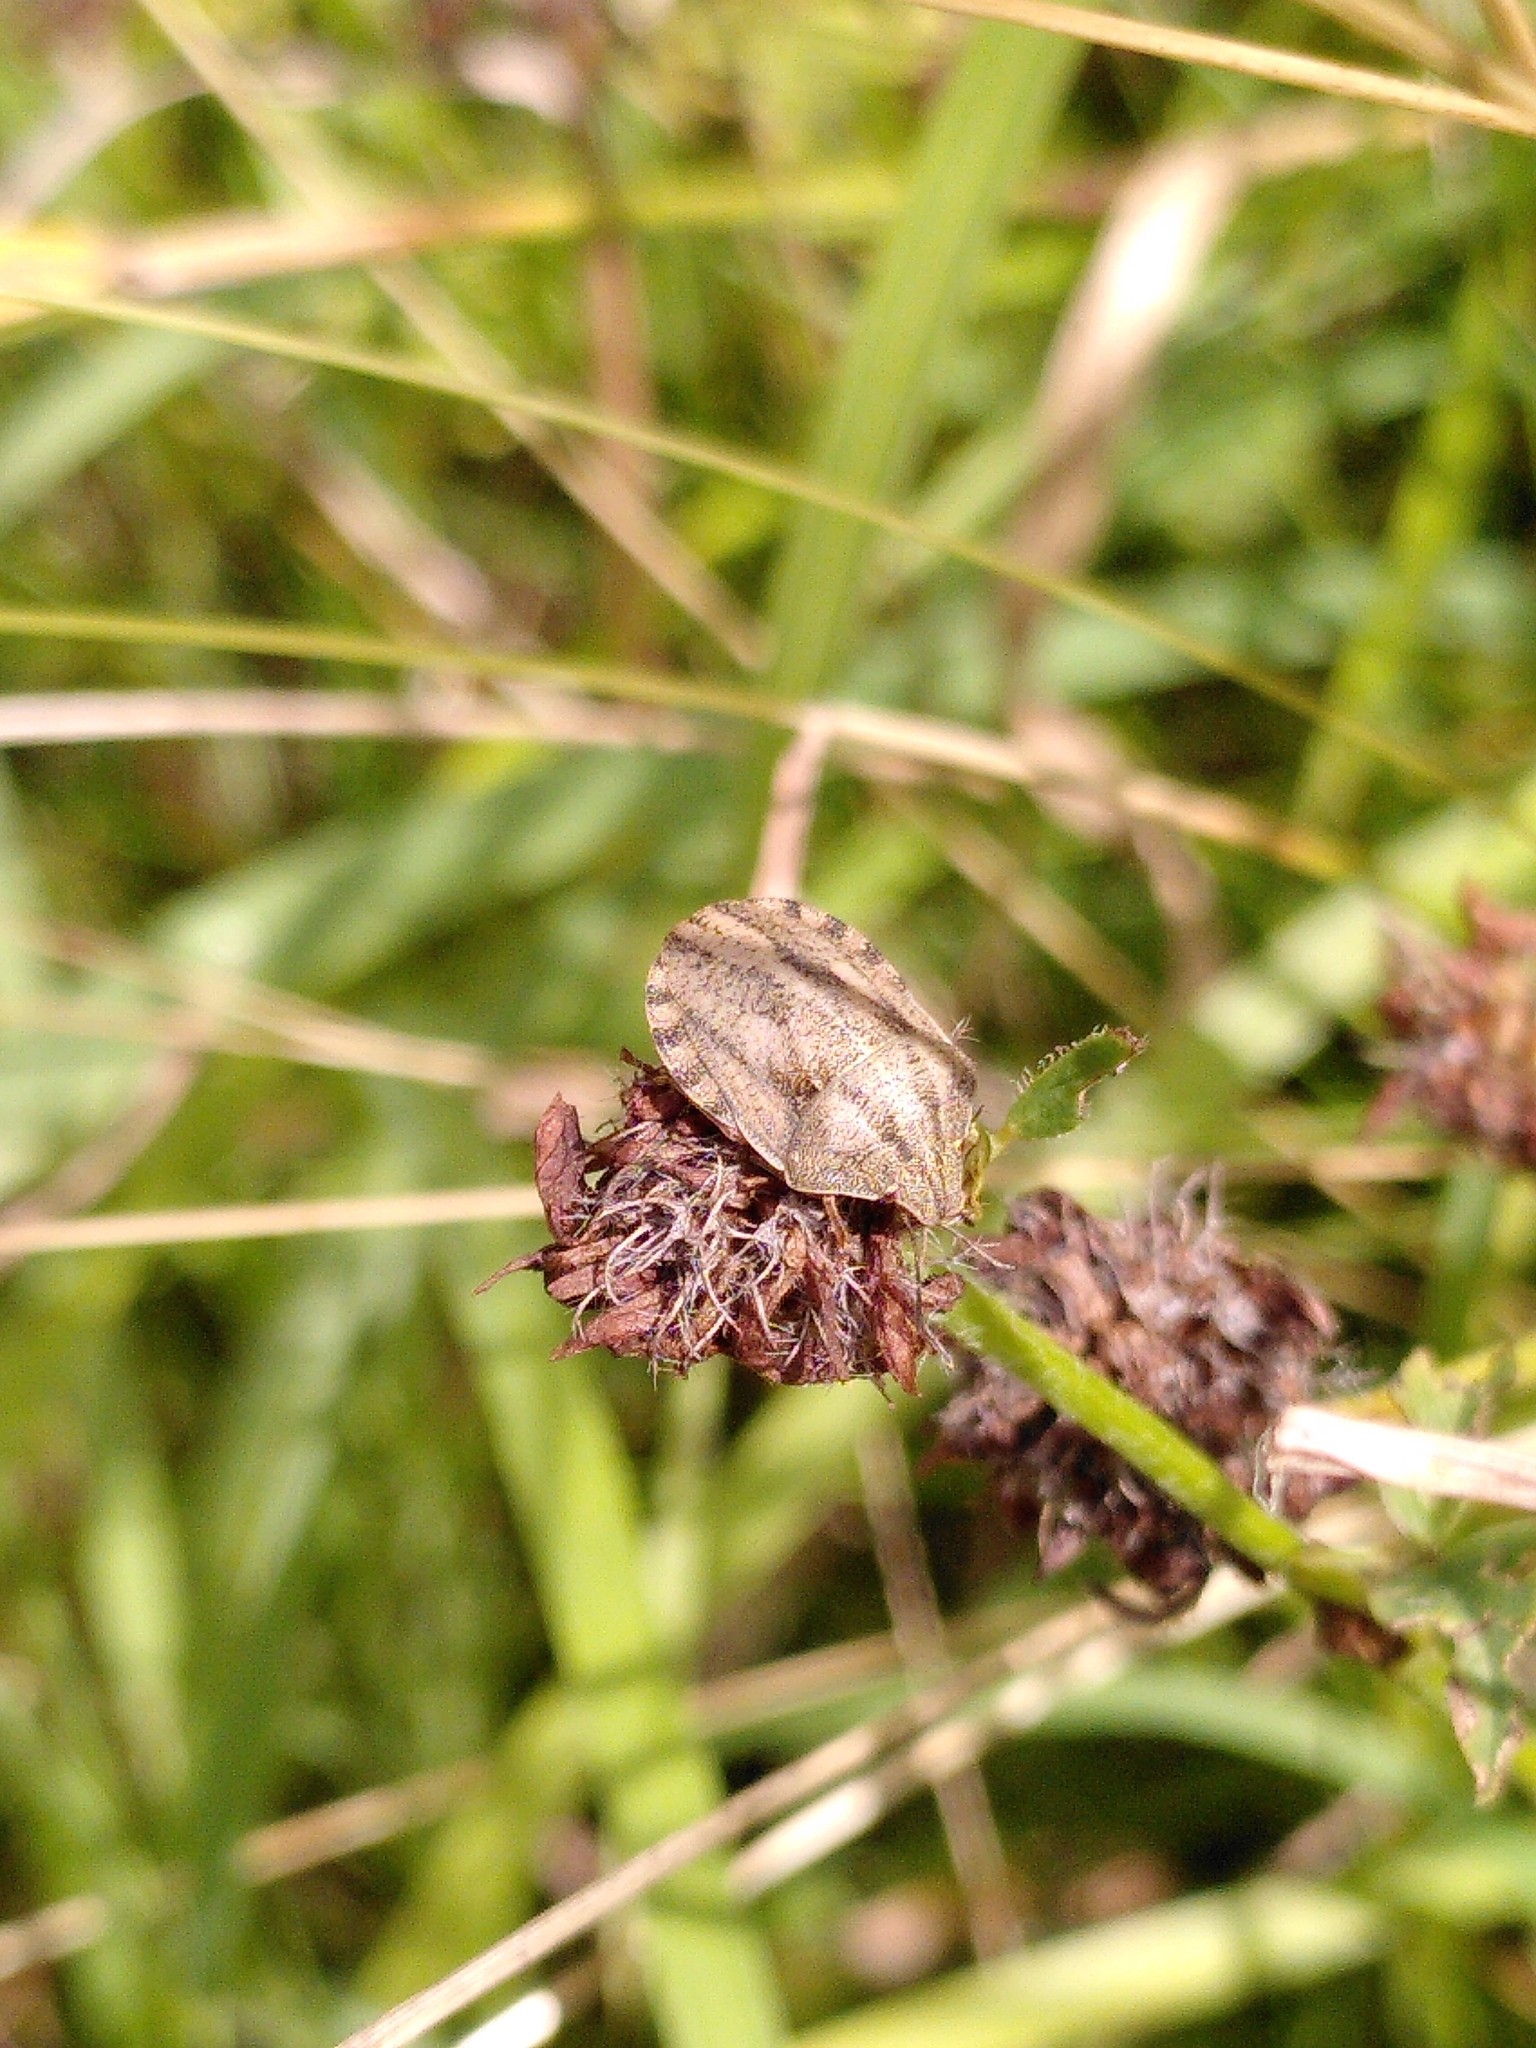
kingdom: Animalia
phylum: Arthropoda
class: Insecta
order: Hemiptera
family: Scutelleridae
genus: Eurygaster
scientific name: Eurygaster testudinaria
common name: Tortoise bug
